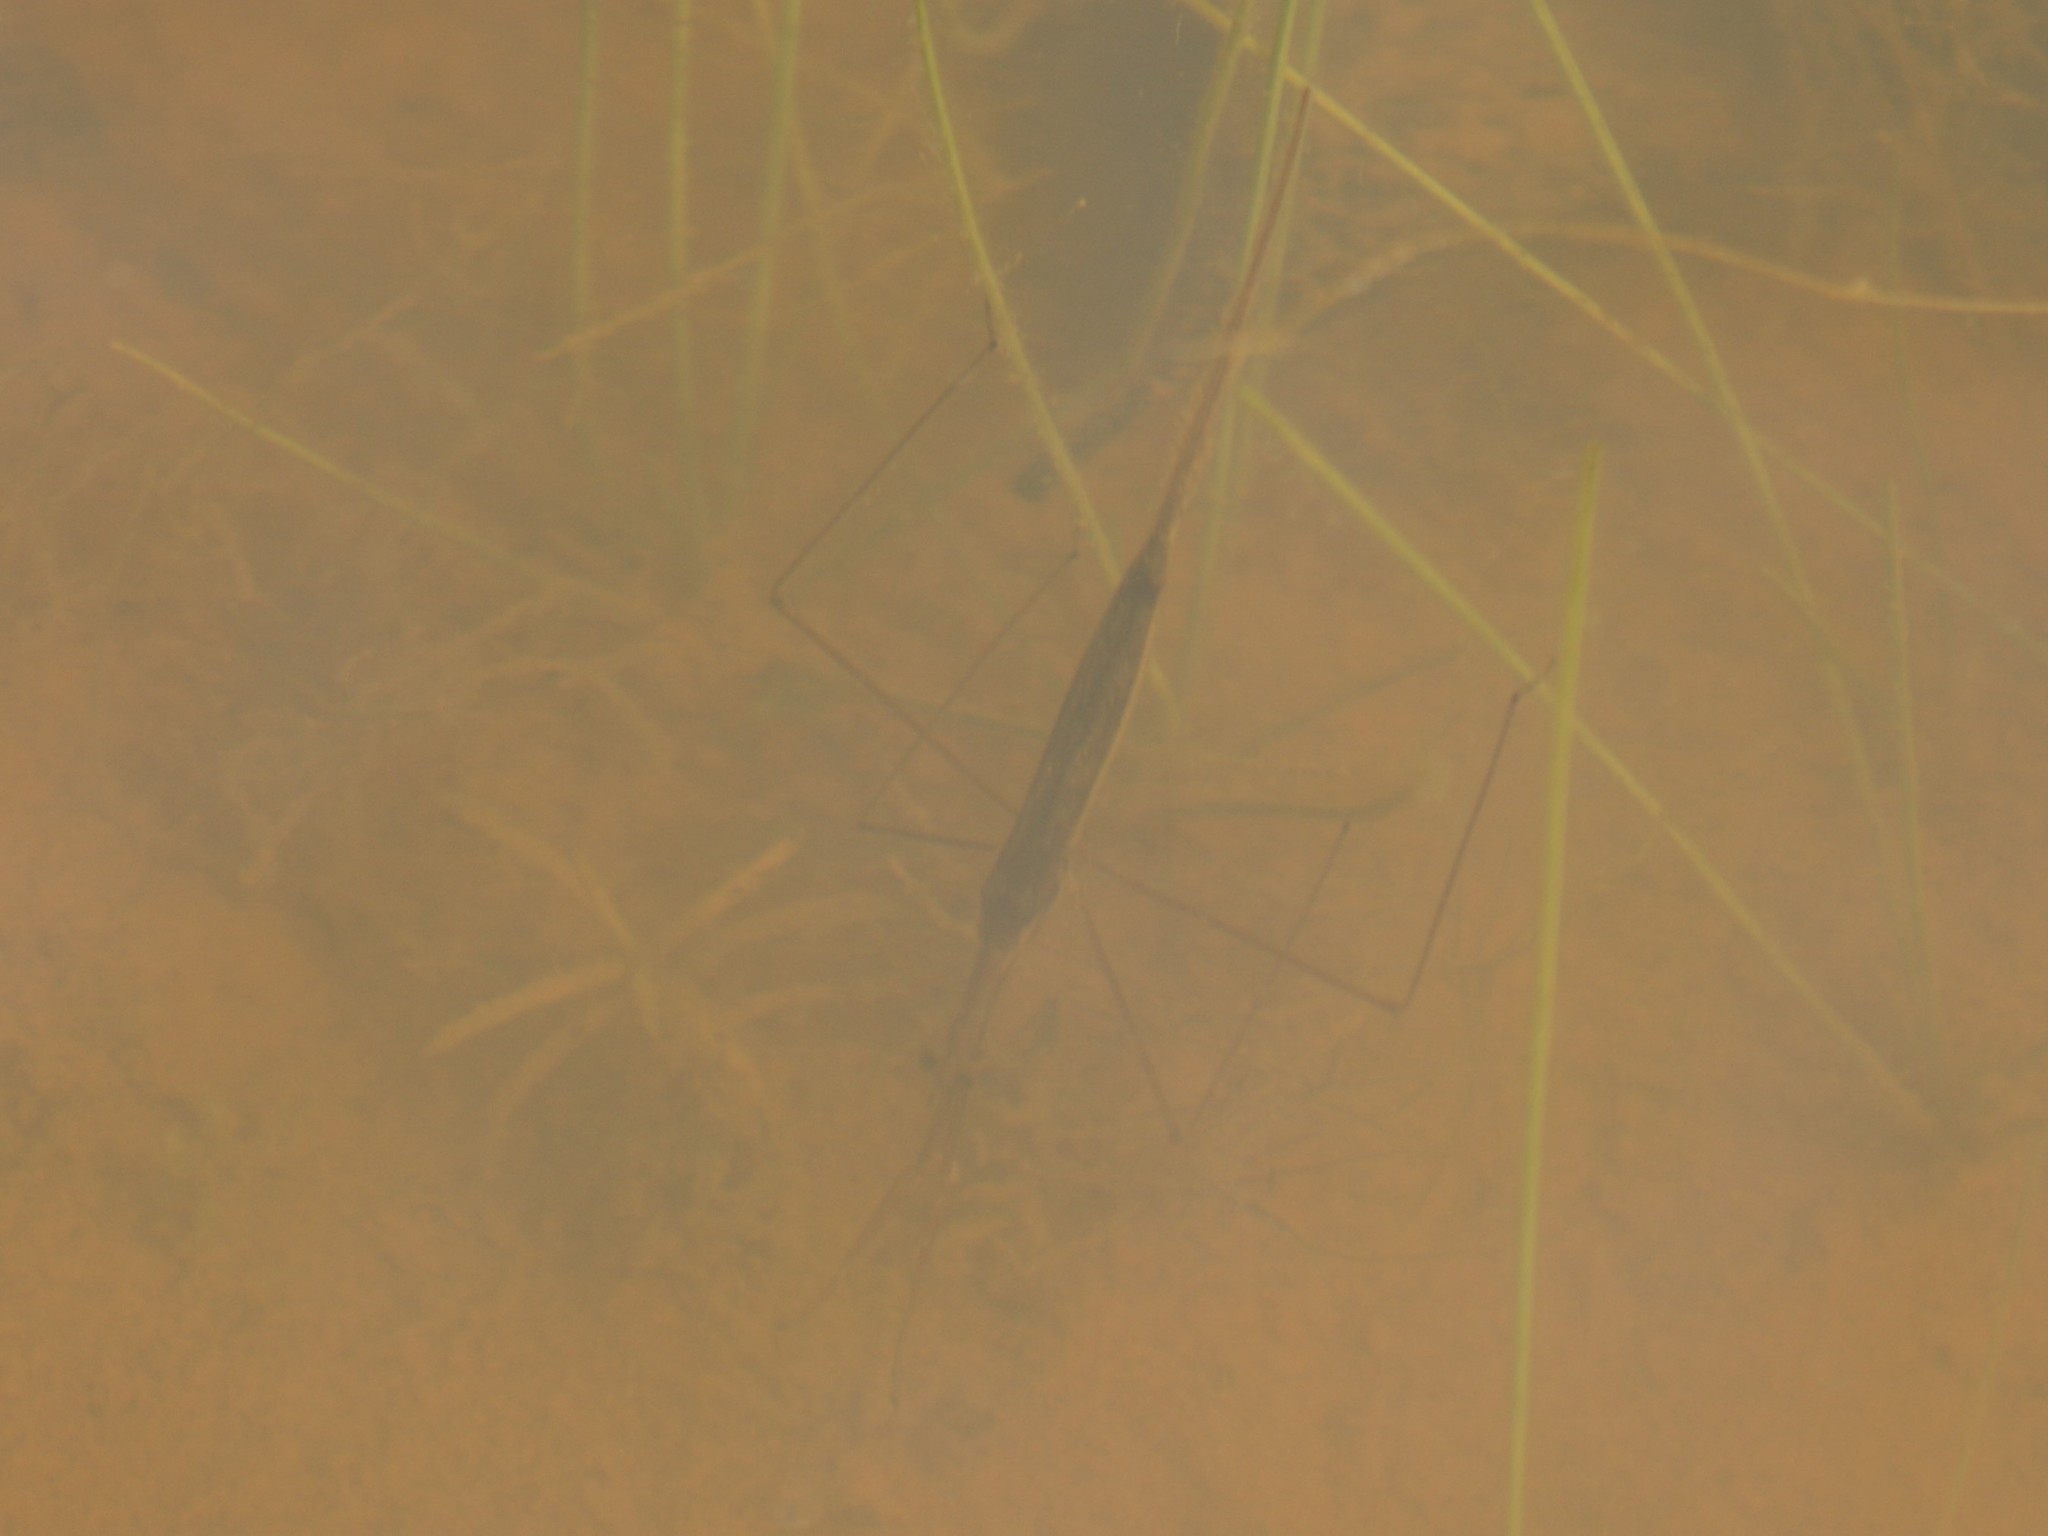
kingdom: Animalia
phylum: Arthropoda
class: Insecta
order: Hemiptera
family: Nepidae
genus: Ranatra
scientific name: Ranatra
